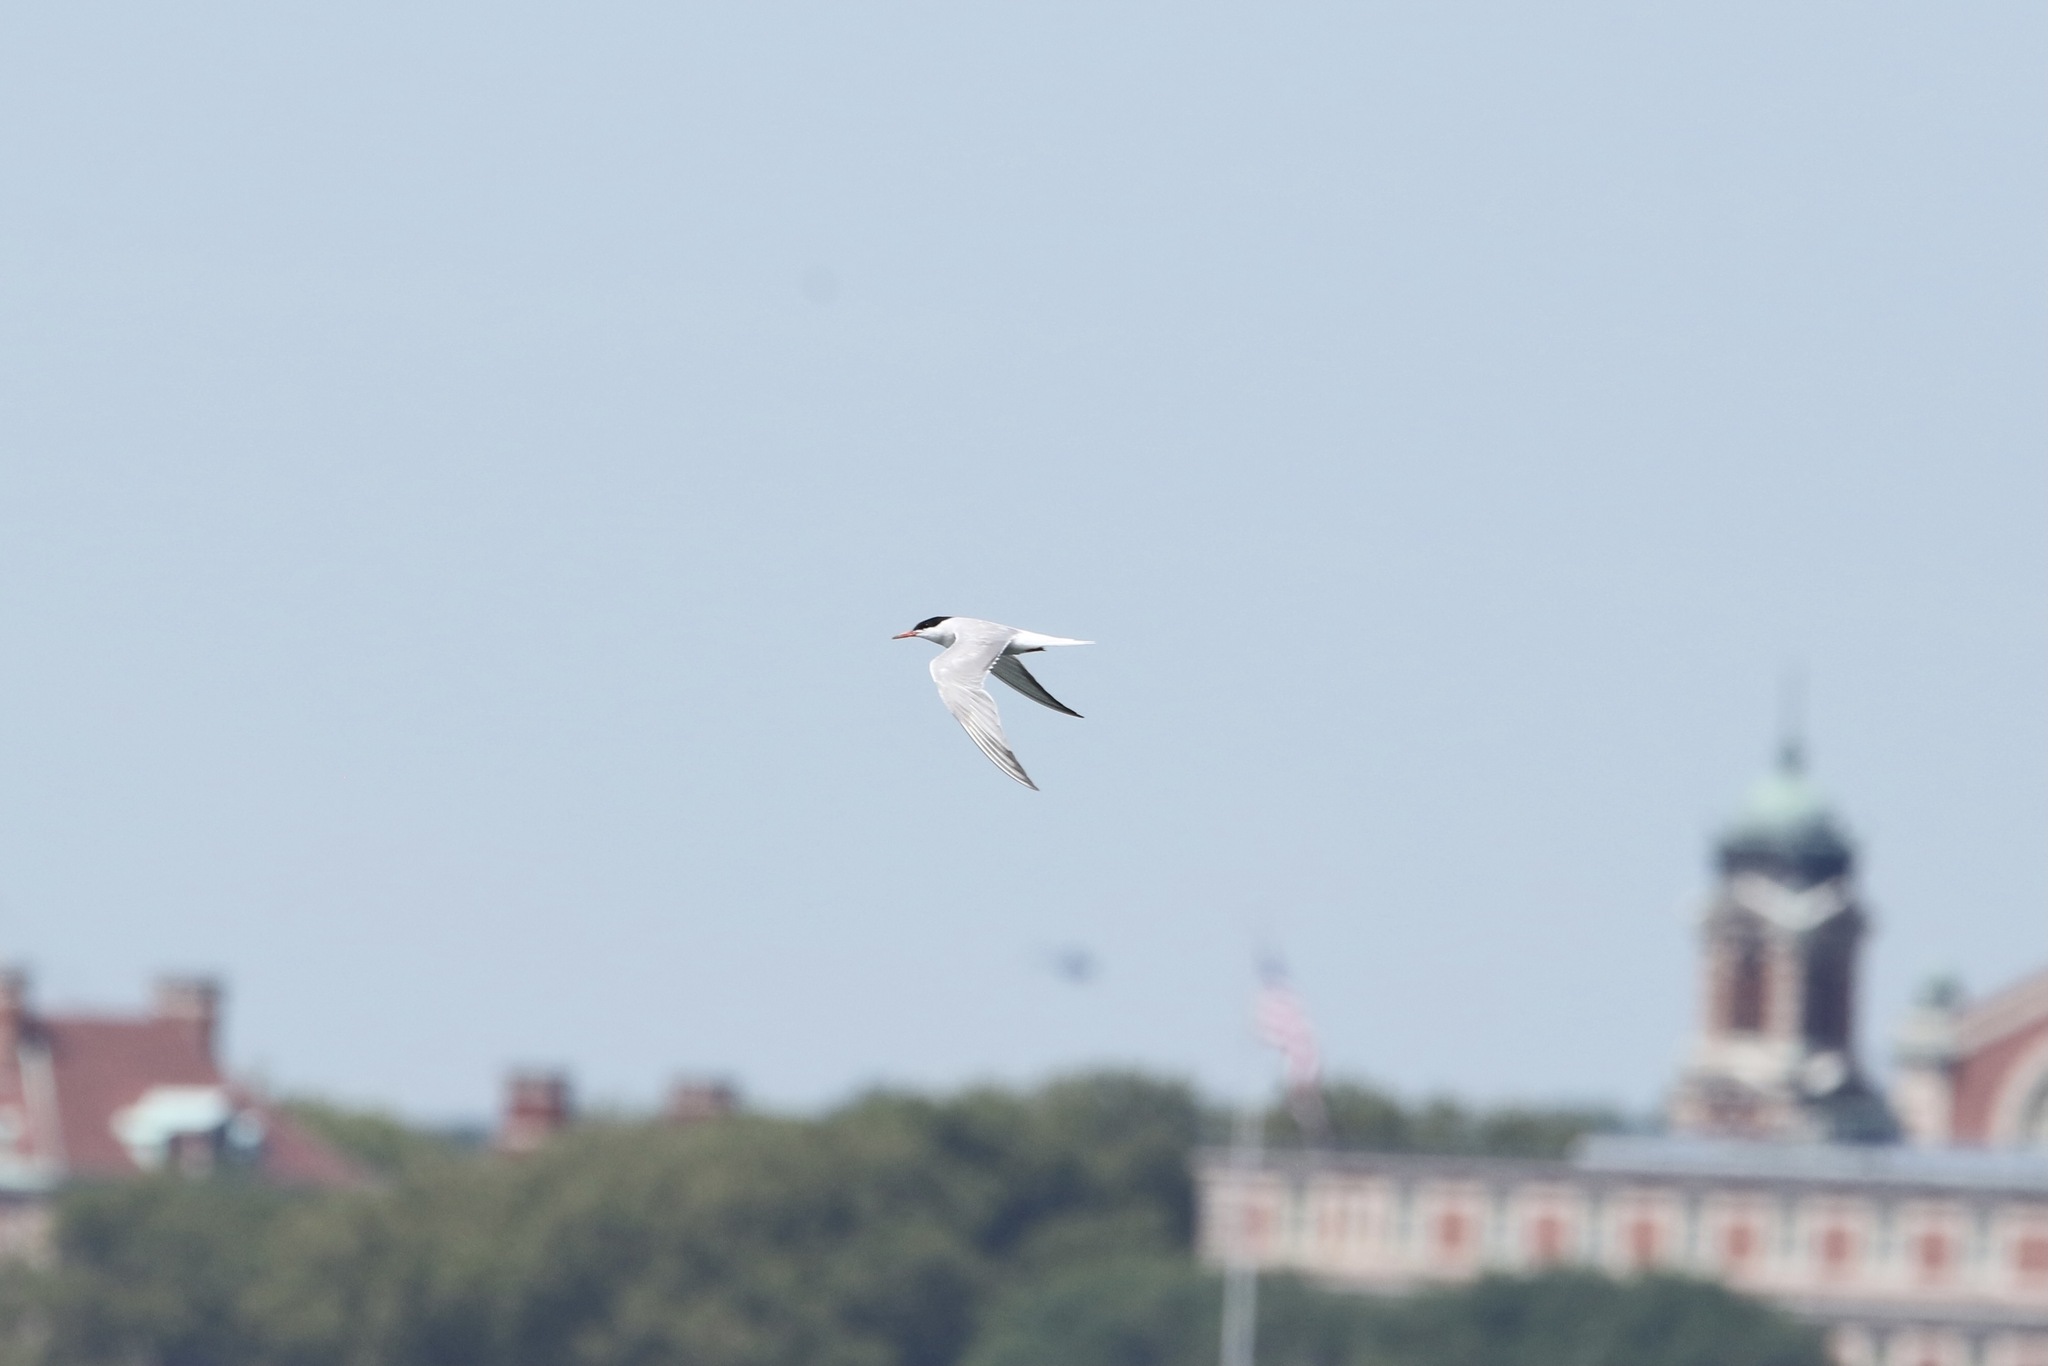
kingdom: Animalia
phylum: Chordata
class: Aves
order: Charadriiformes
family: Laridae
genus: Sterna
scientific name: Sterna hirundo
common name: Common tern
